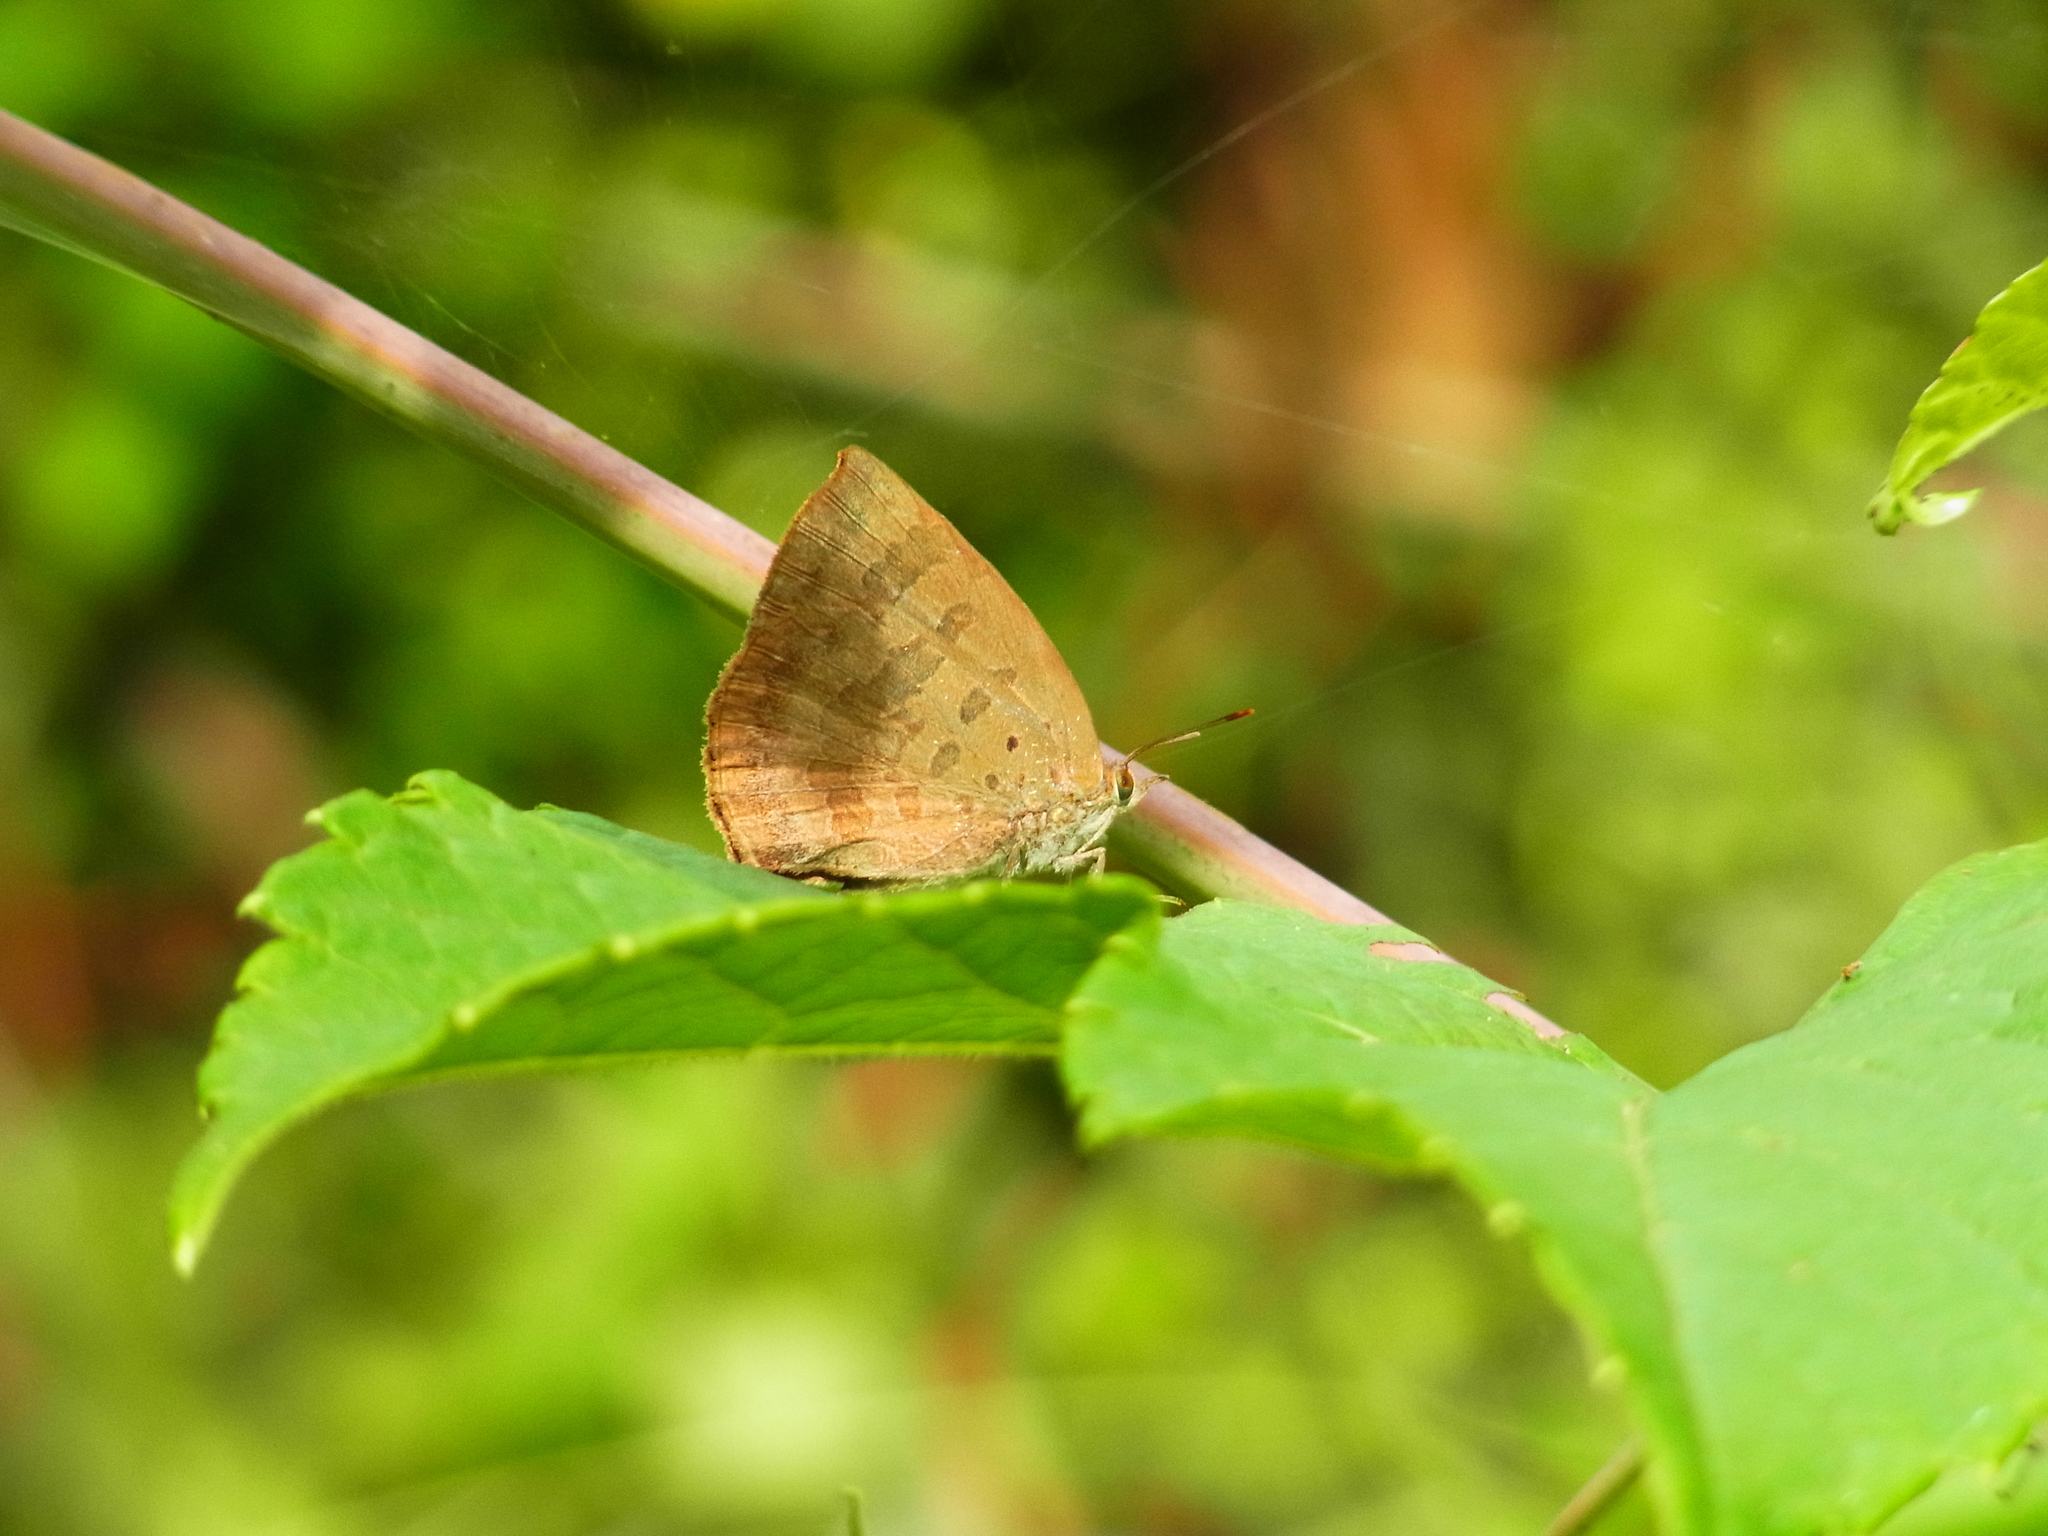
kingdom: Animalia
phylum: Arthropoda
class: Insecta
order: Lepidoptera
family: Lycaenidae
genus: Arhopala
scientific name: Arhopala japonica
